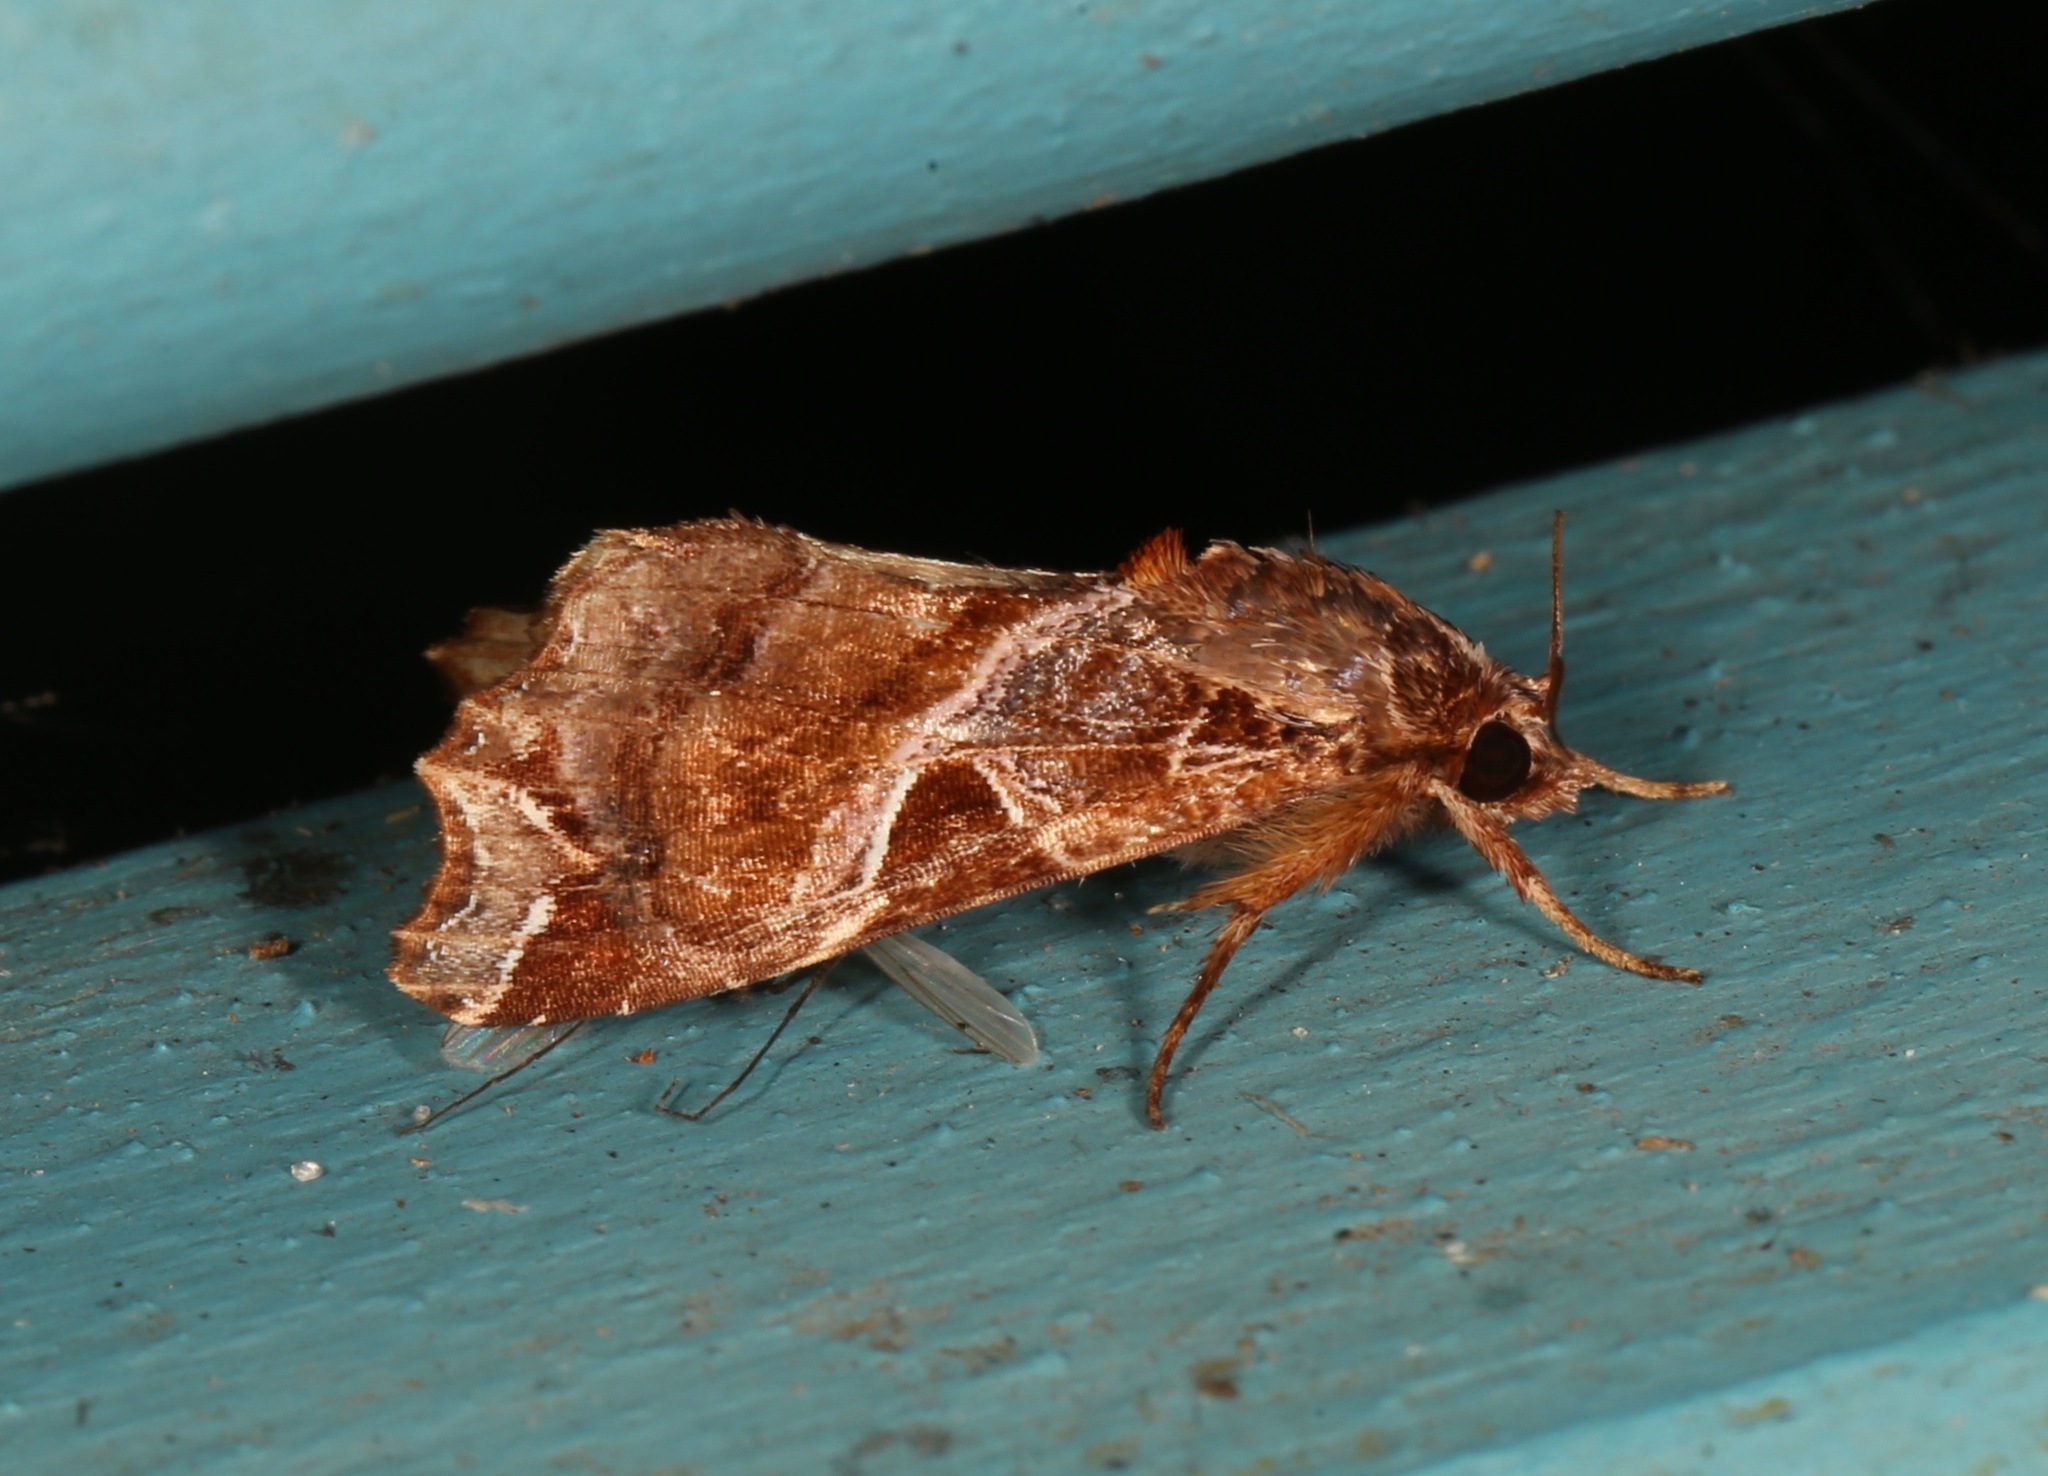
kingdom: Animalia
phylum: Arthropoda
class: Insecta
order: Lepidoptera
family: Noctuidae
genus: Callopistria
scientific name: Callopistria floridensis
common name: Florida fern moth
